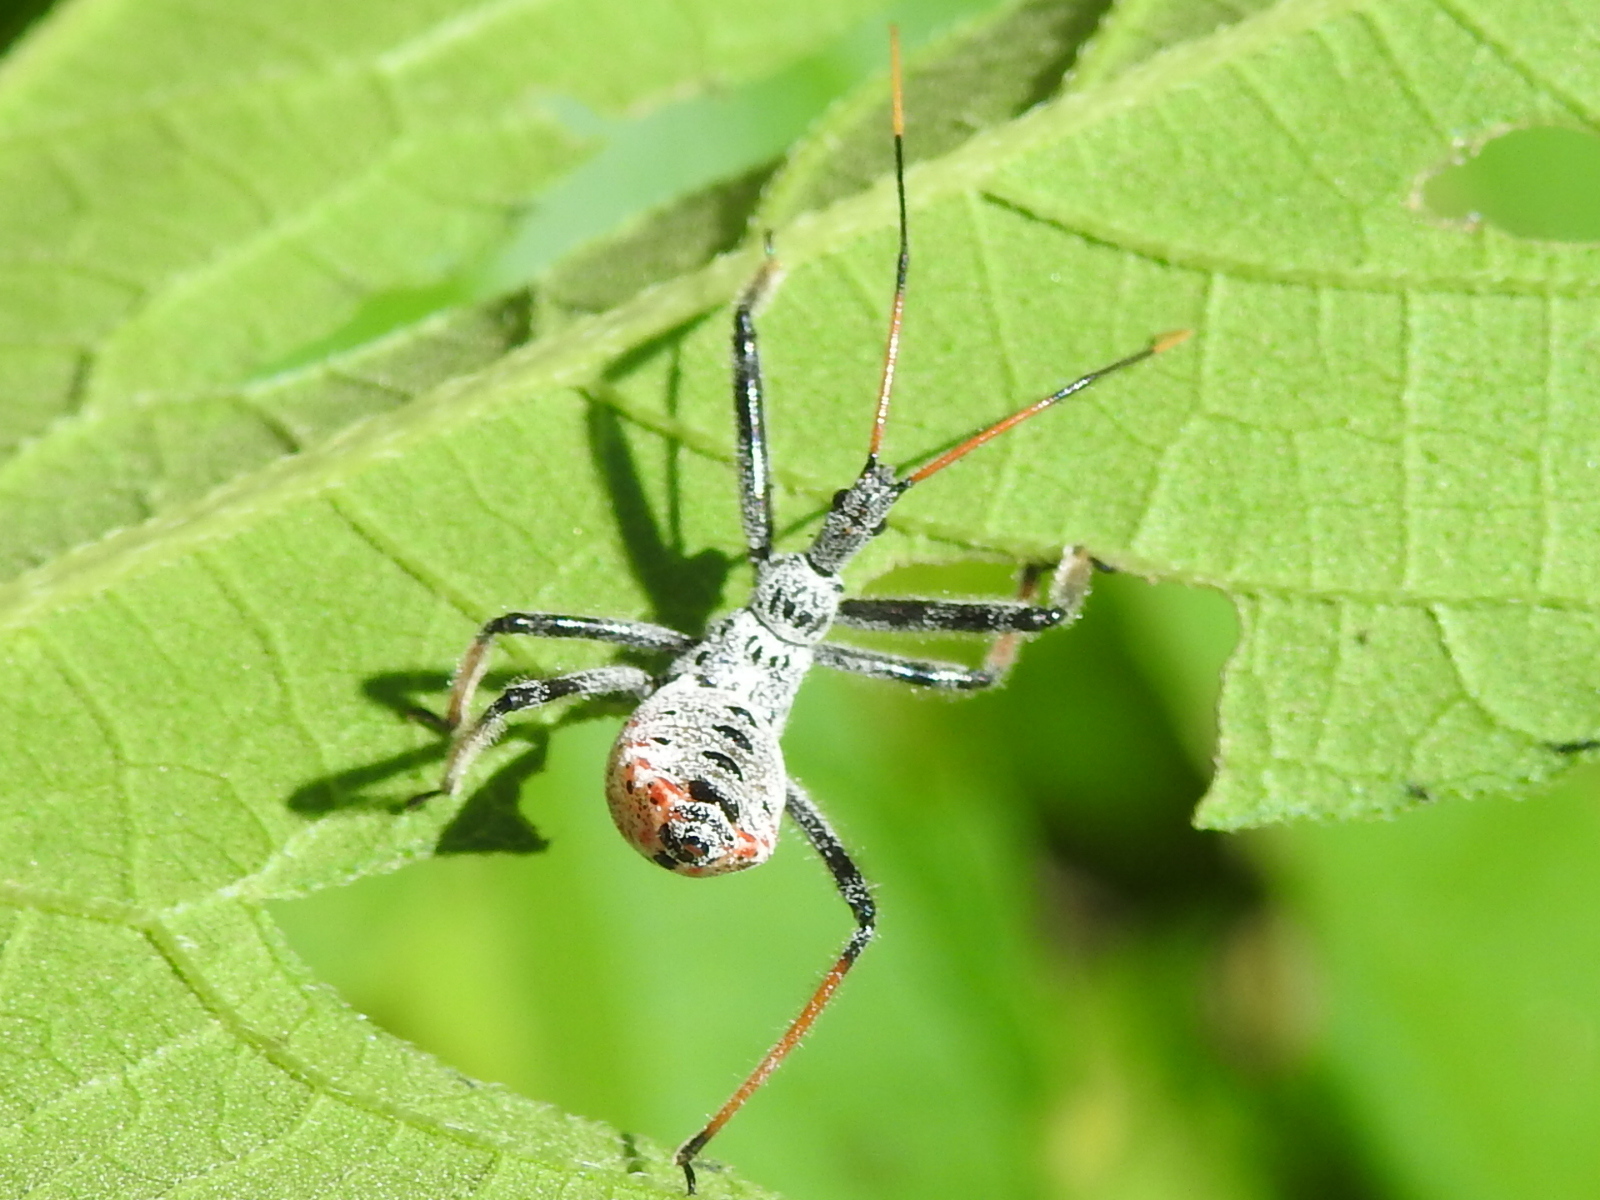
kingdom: Animalia
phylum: Arthropoda
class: Insecta
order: Hemiptera
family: Reduviidae
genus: Arilus
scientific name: Arilus cristatus
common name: North american wheel bug
